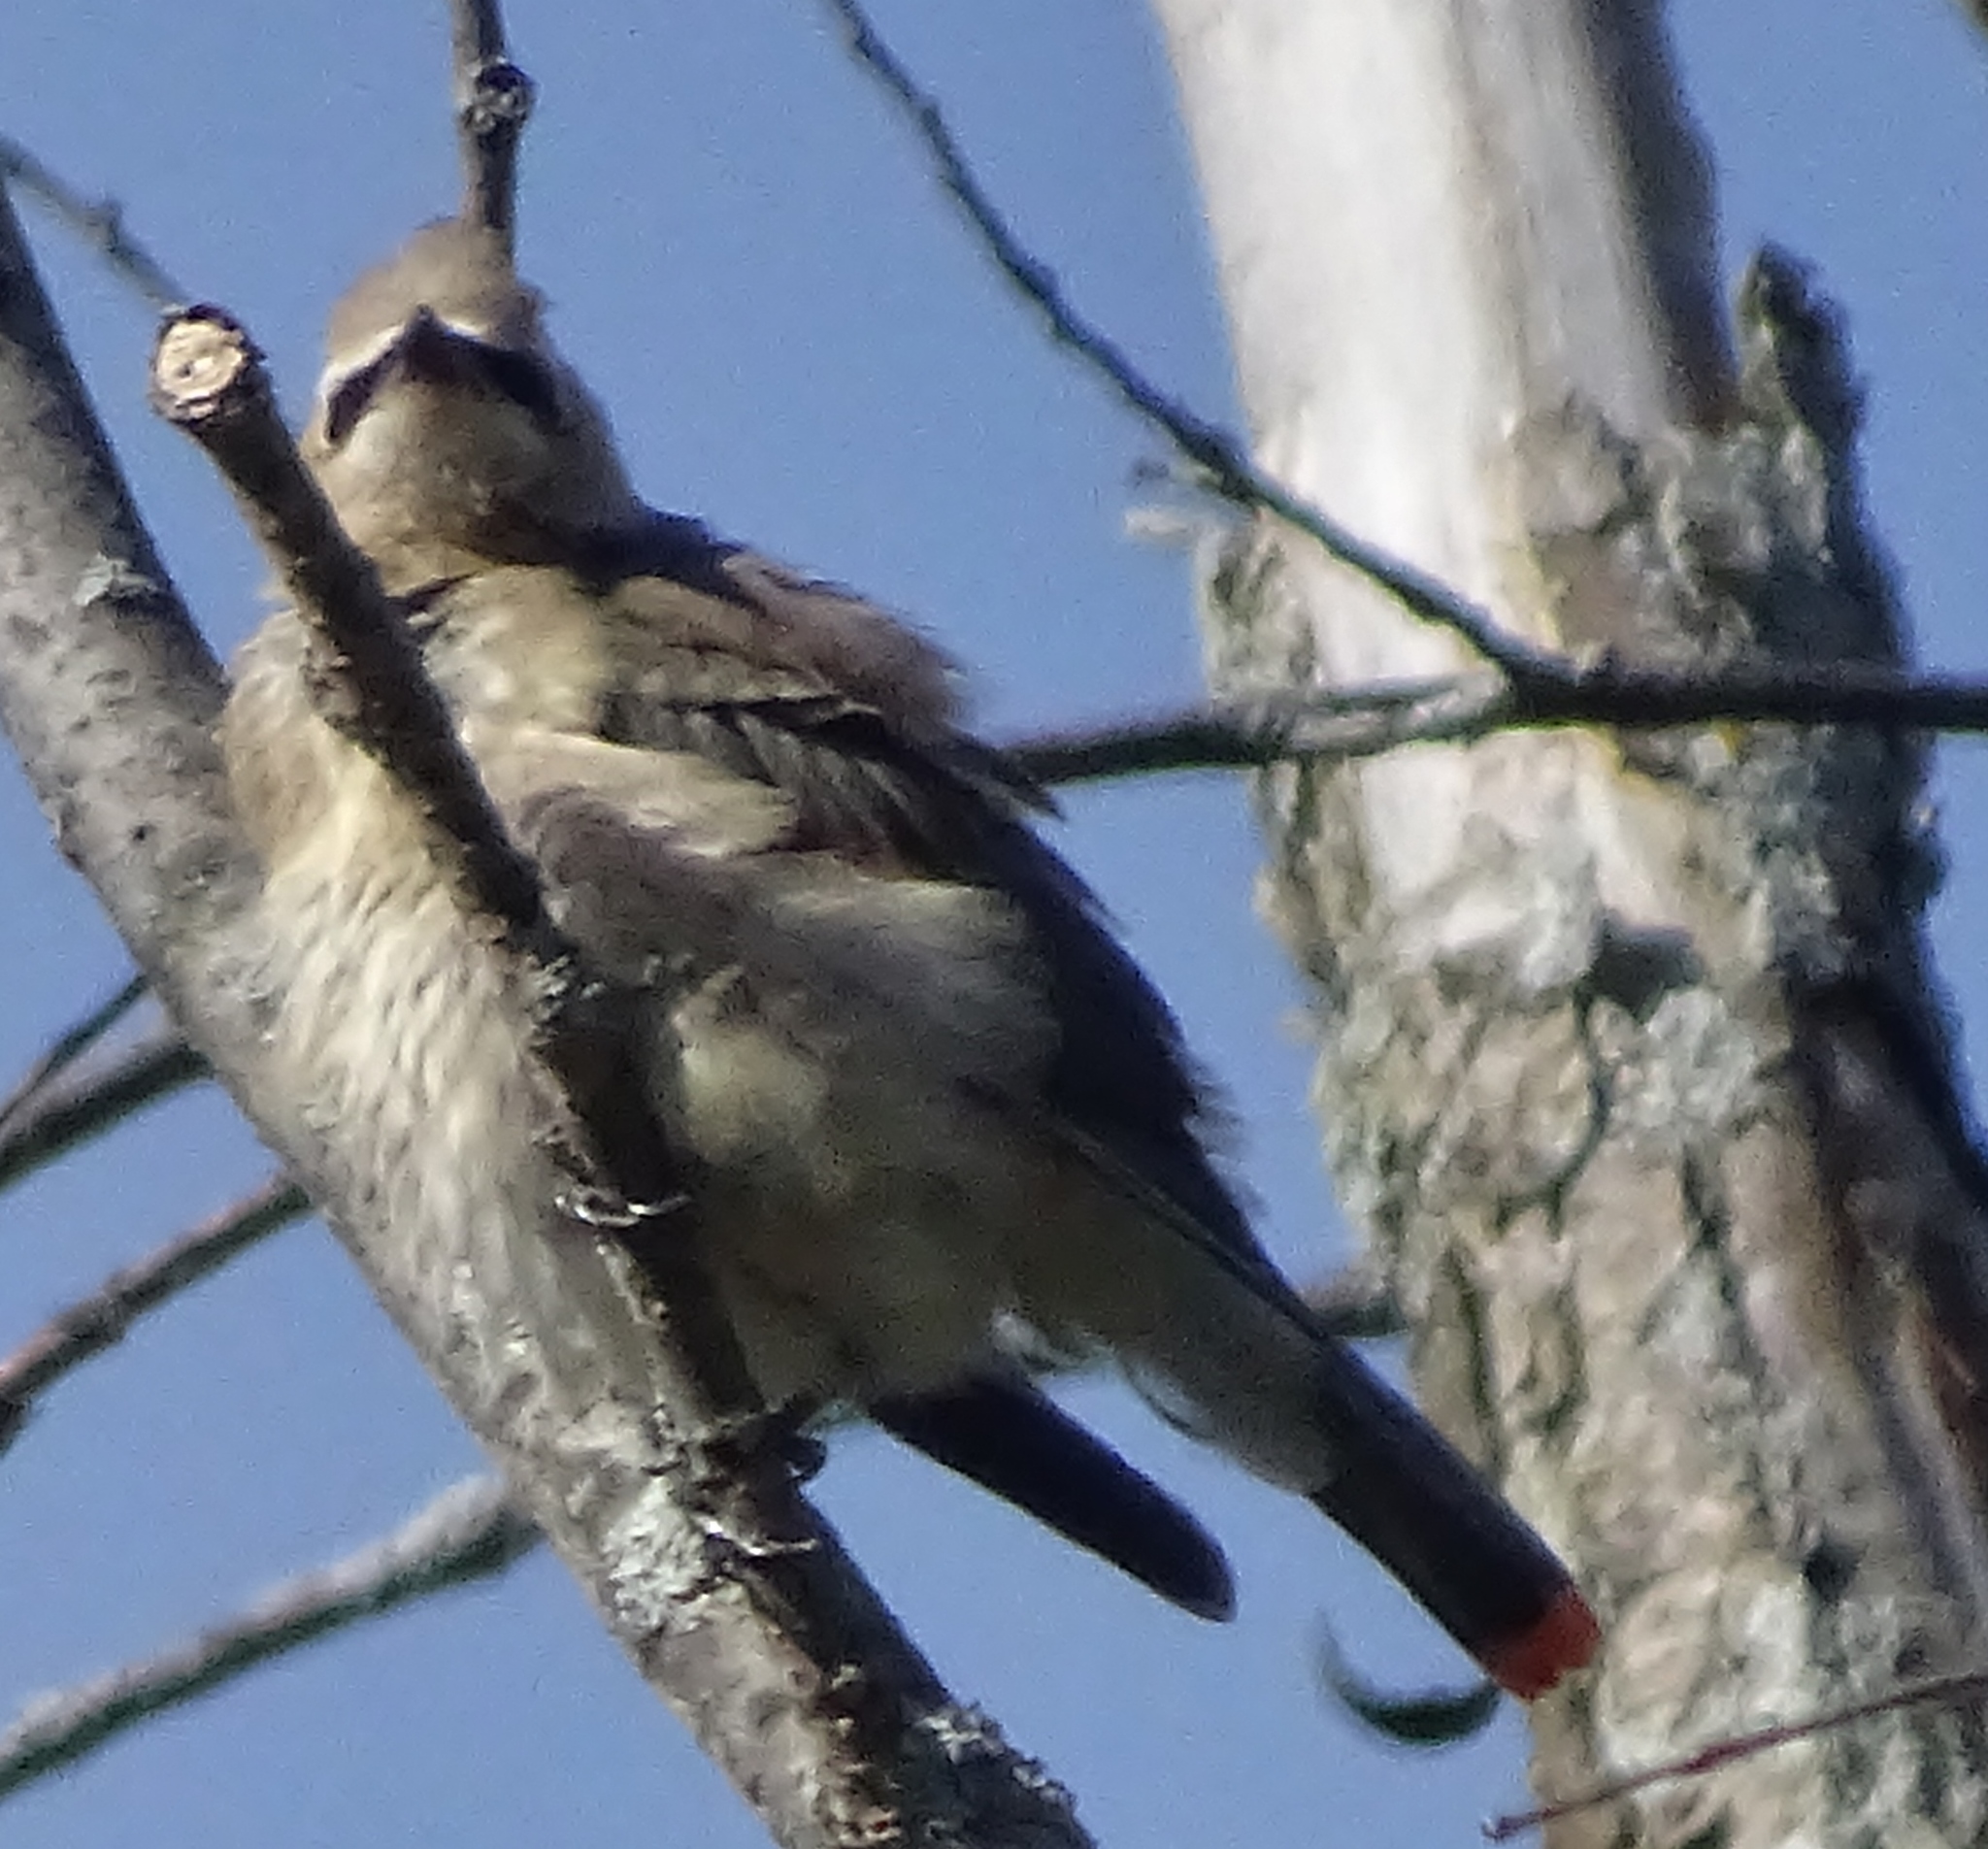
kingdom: Animalia
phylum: Chordata
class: Aves
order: Passeriformes
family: Bombycillidae
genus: Bombycilla
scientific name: Bombycilla cedrorum
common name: Cedar waxwing
